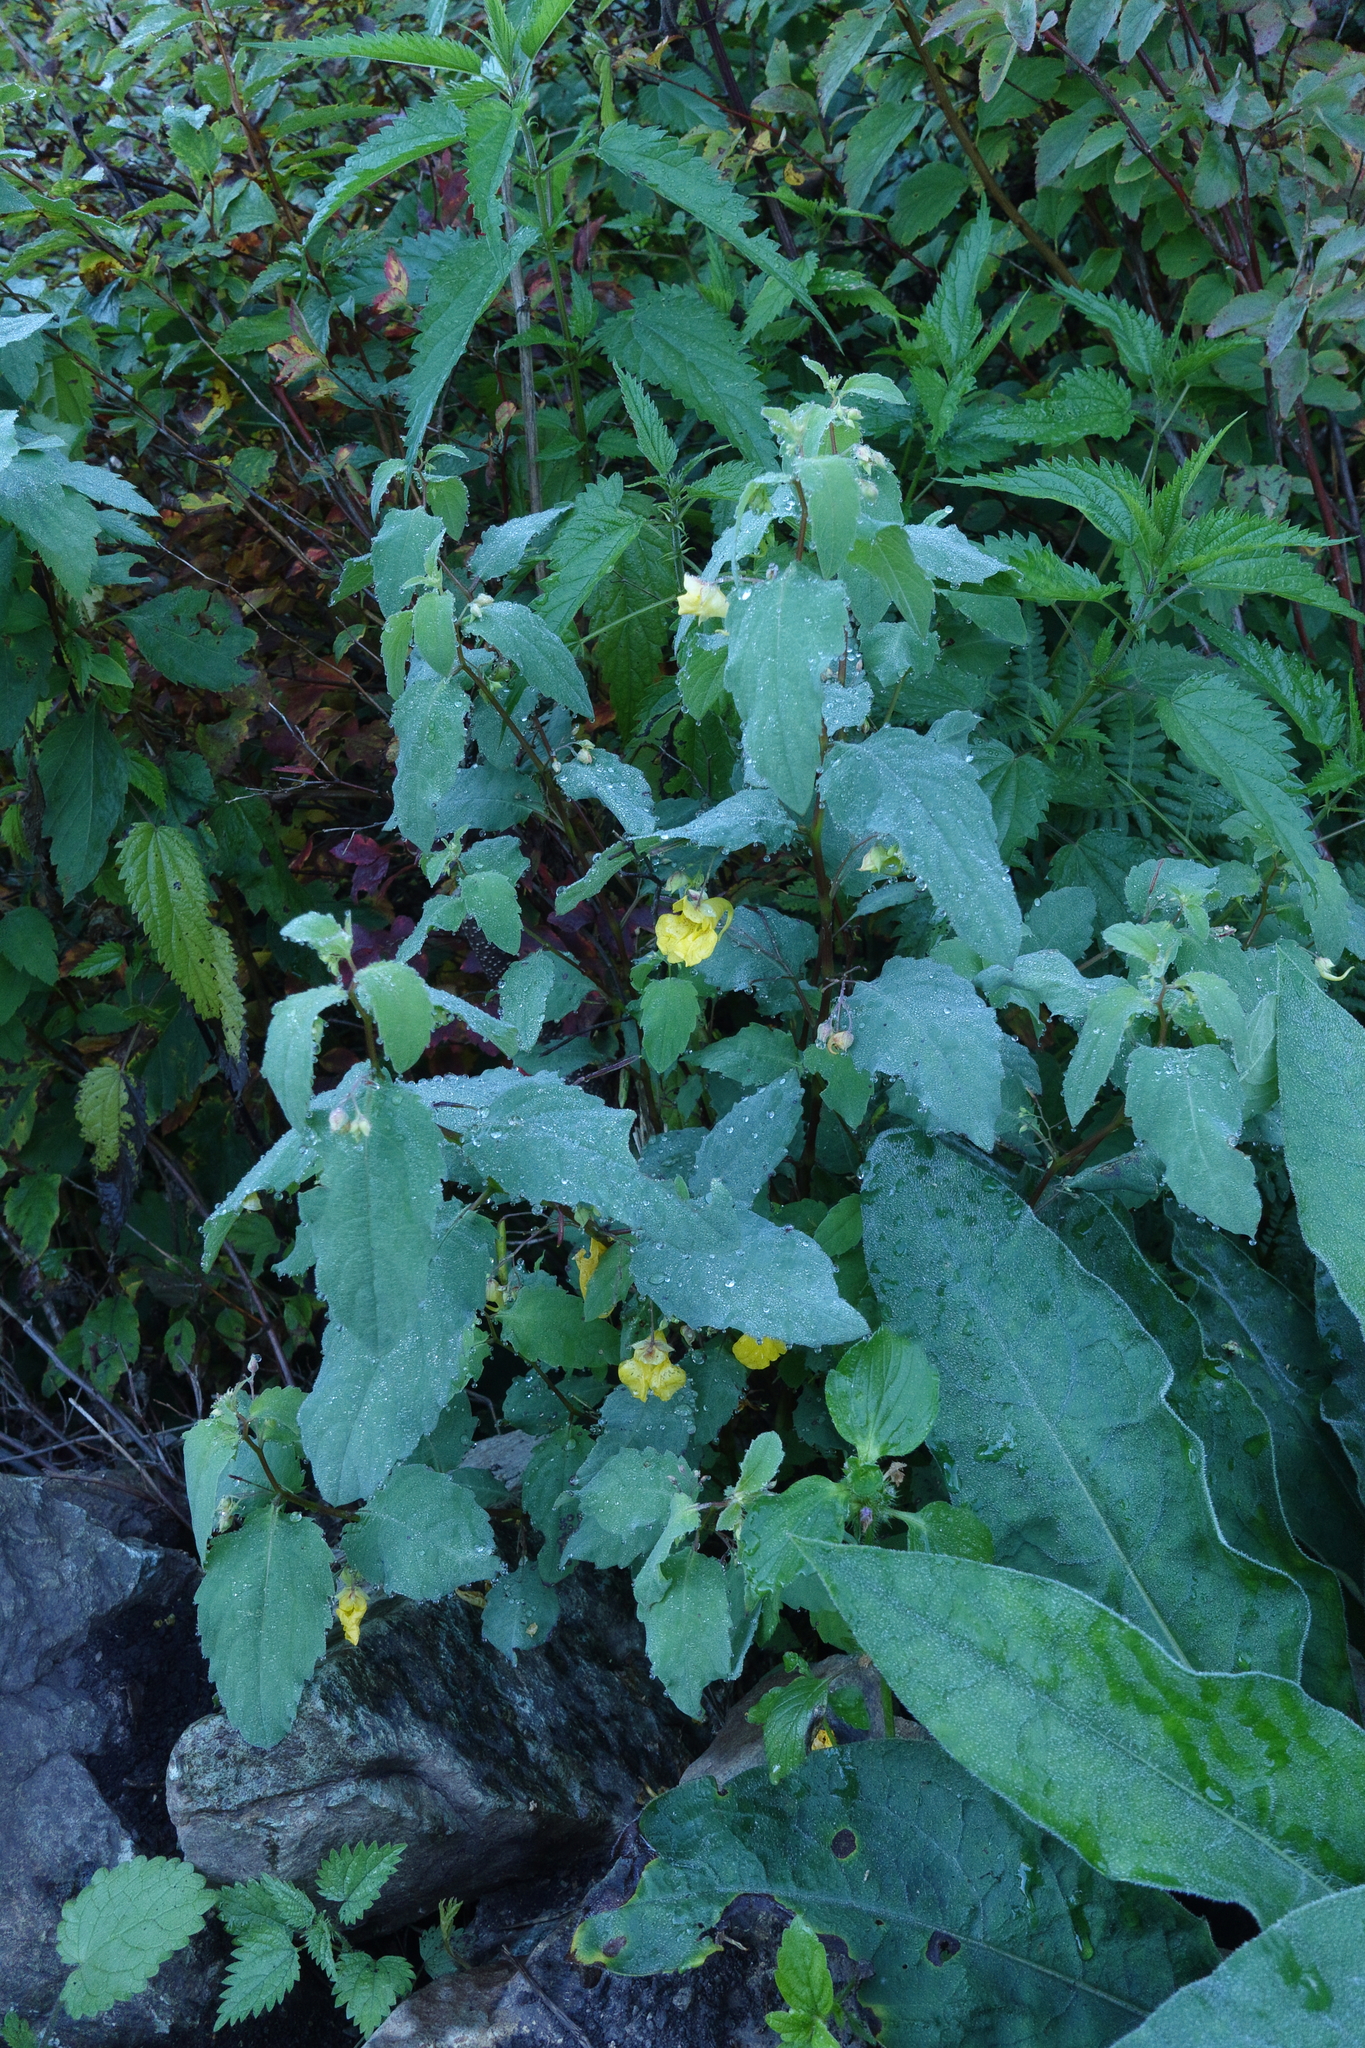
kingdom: Plantae
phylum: Tracheophyta
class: Magnoliopsida
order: Ericales
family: Balsaminaceae
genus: Impatiens
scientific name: Impatiens noli-tangere
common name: Touch-me-not balsam
